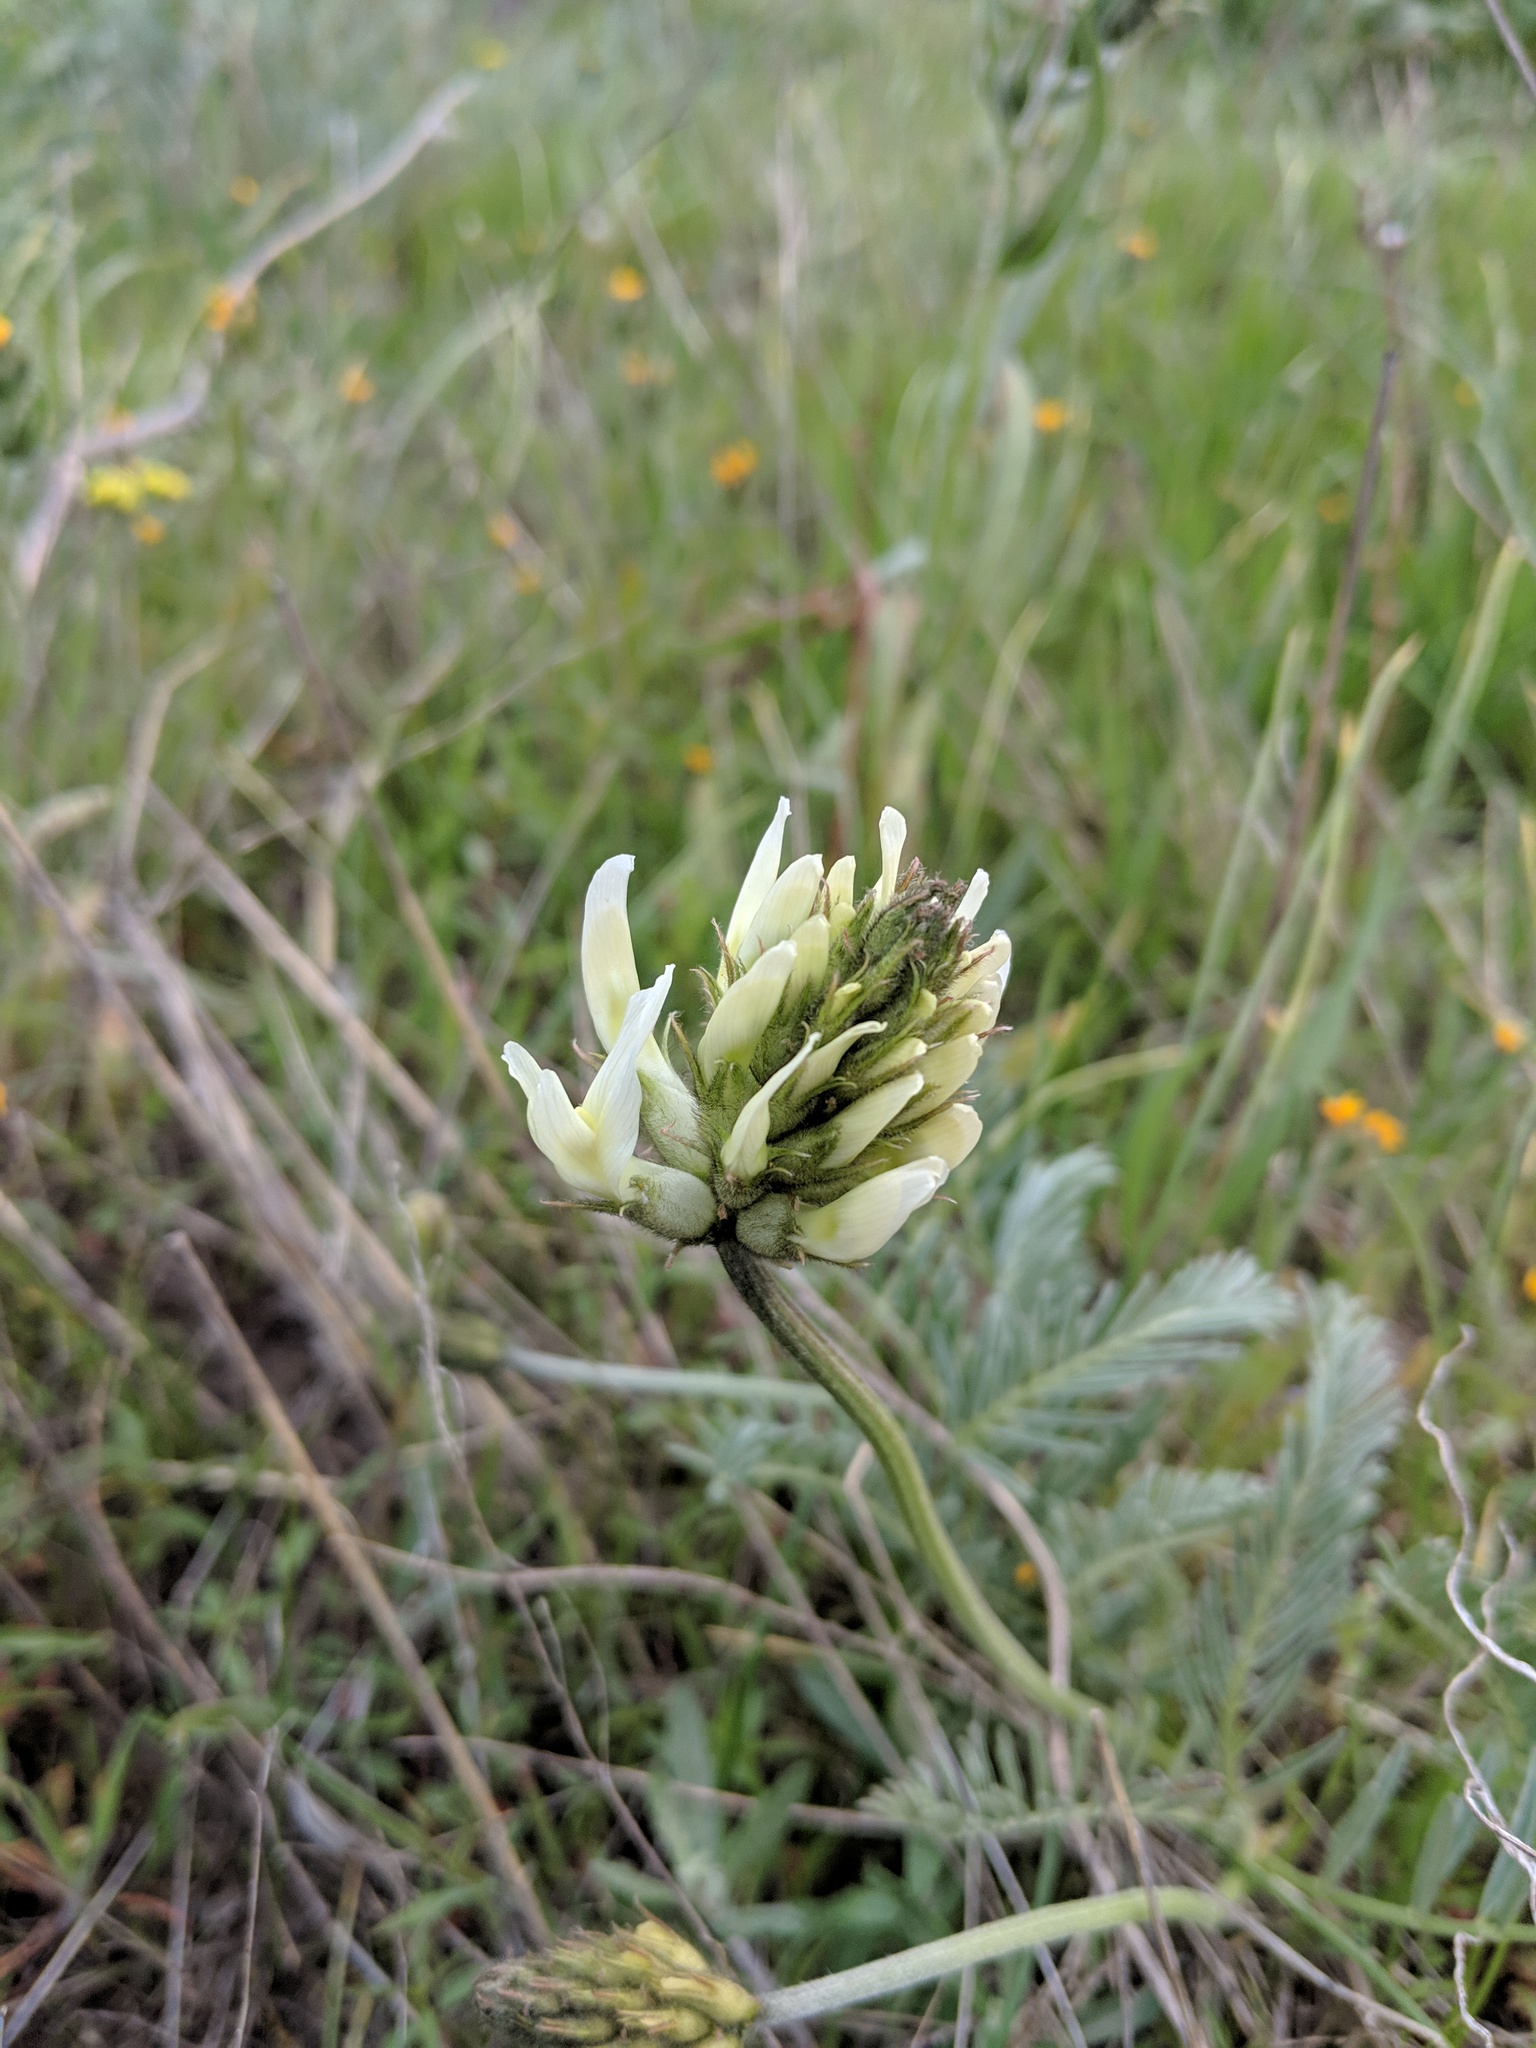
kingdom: Plantae
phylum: Tracheophyta
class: Magnoliopsida
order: Fabales
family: Fabaceae
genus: Astragalus
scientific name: Astragalus hoodianus
